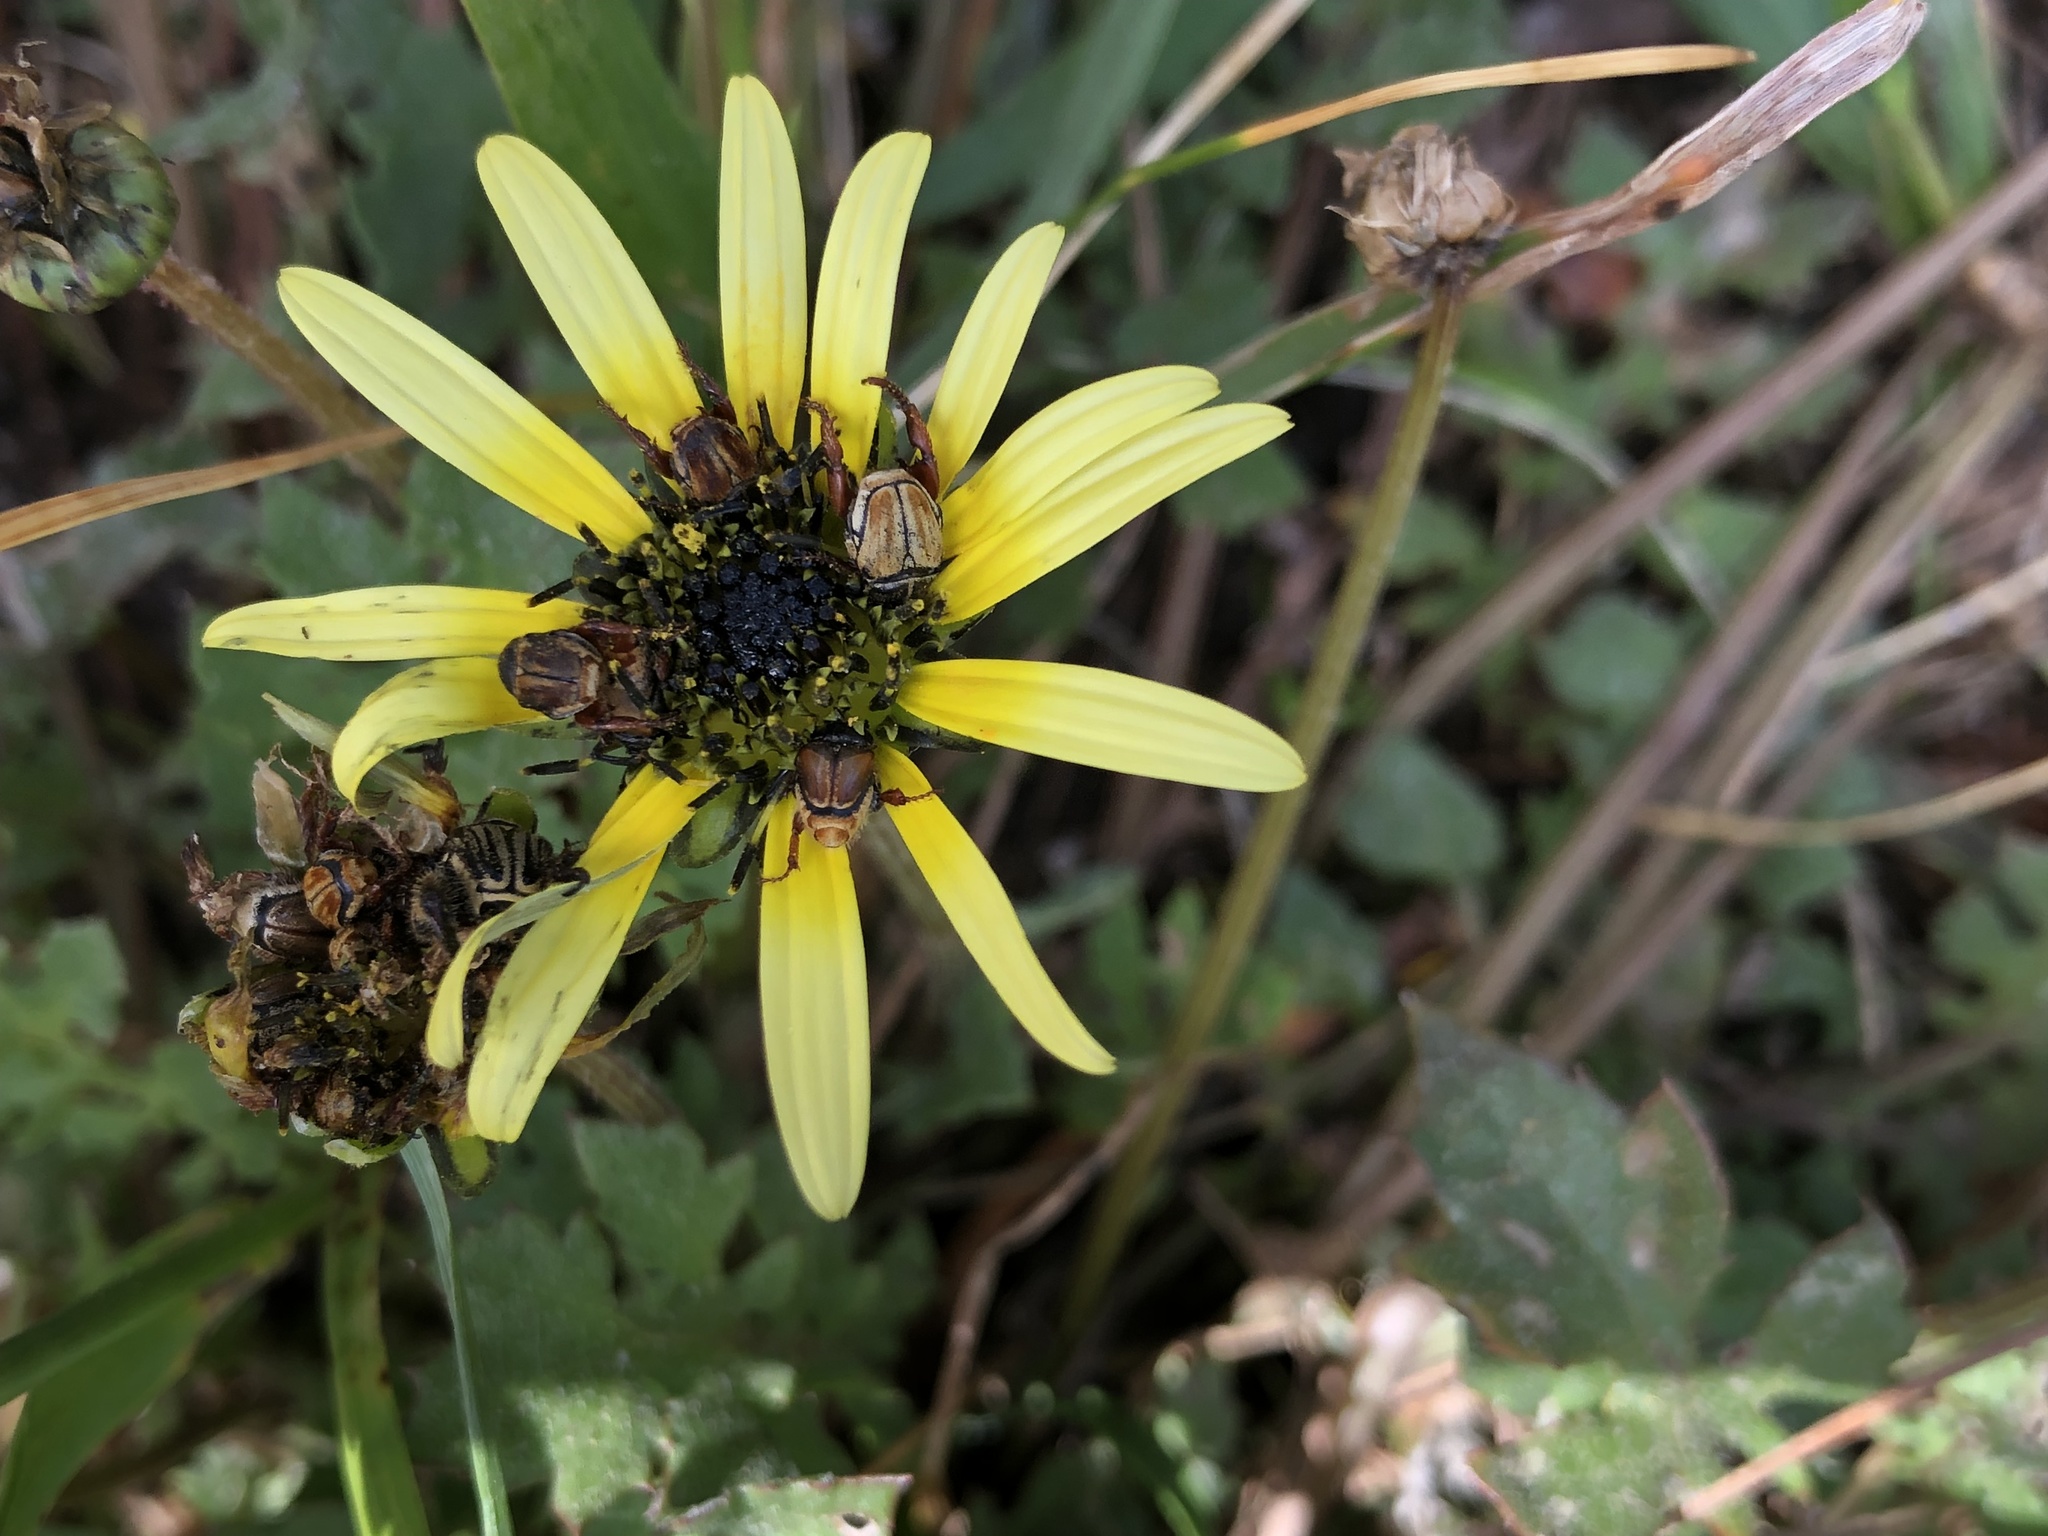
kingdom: Plantae
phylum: Tracheophyta
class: Magnoliopsida
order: Asterales
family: Asteraceae
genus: Arctotheca
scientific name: Arctotheca calendula
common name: Capeweed
